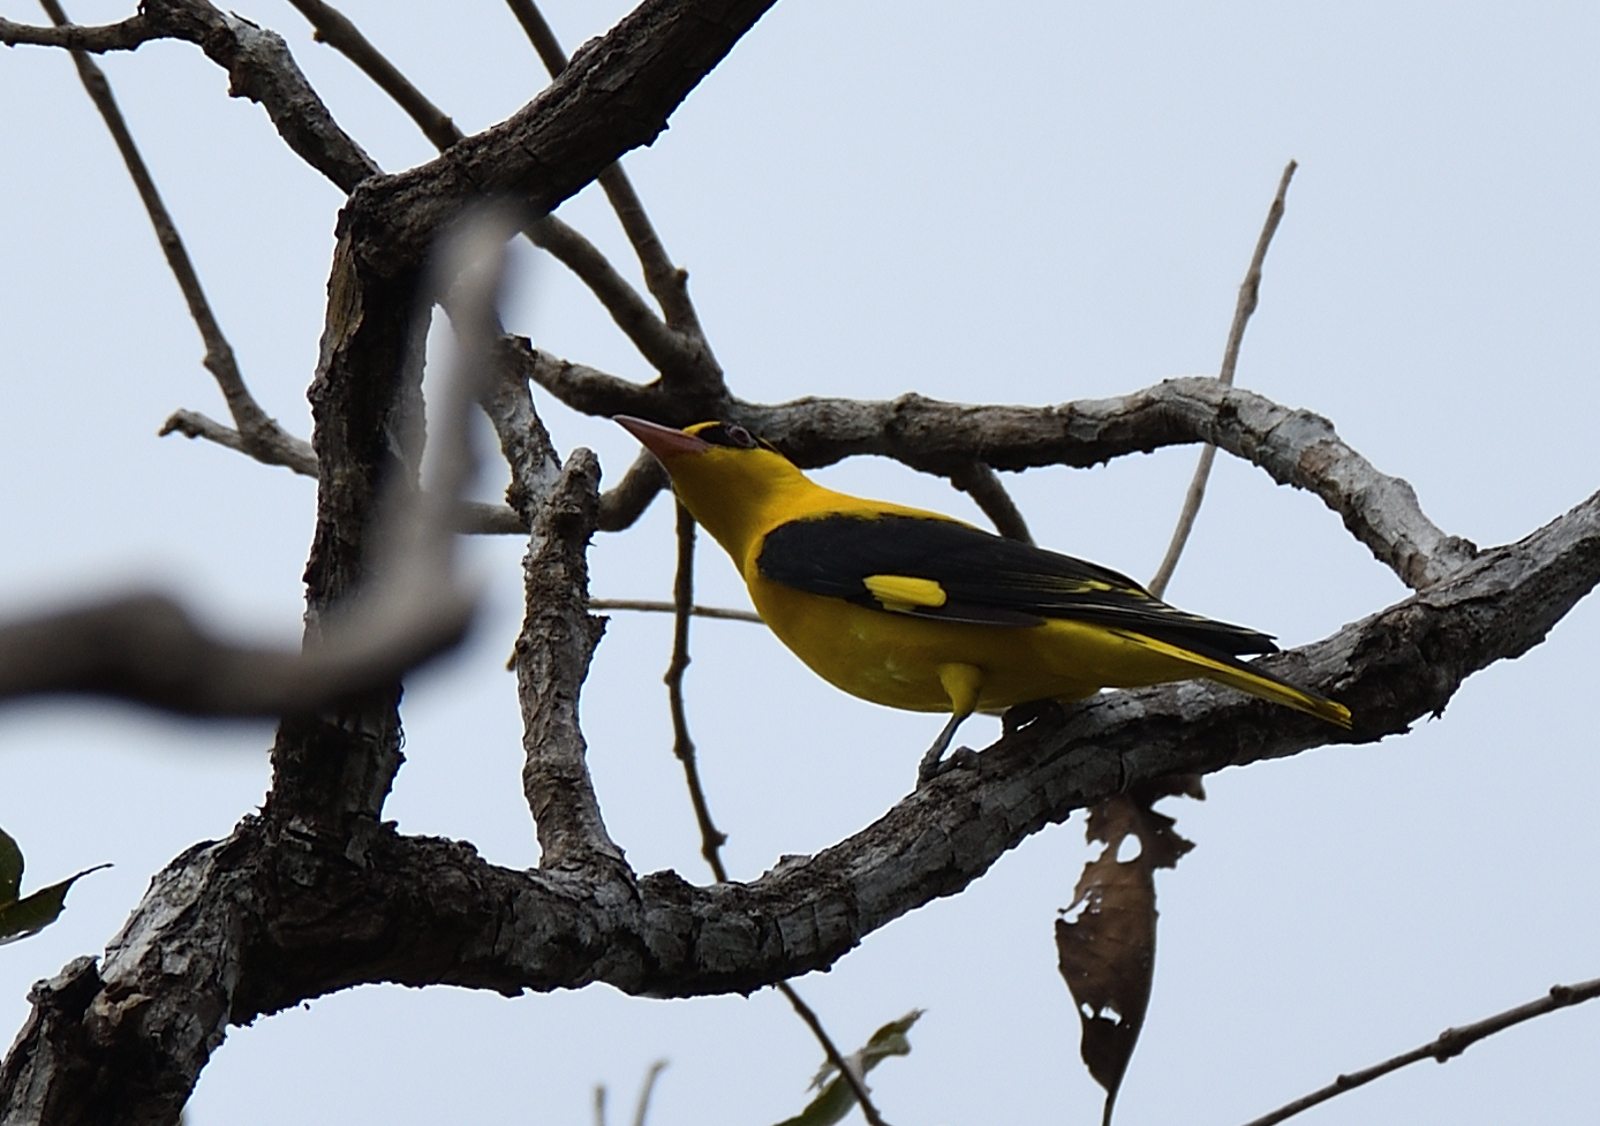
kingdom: Animalia
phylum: Chordata
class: Aves
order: Passeriformes
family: Oriolidae
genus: Oriolus
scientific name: Oriolus kundoo
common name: Indian golden oriole
